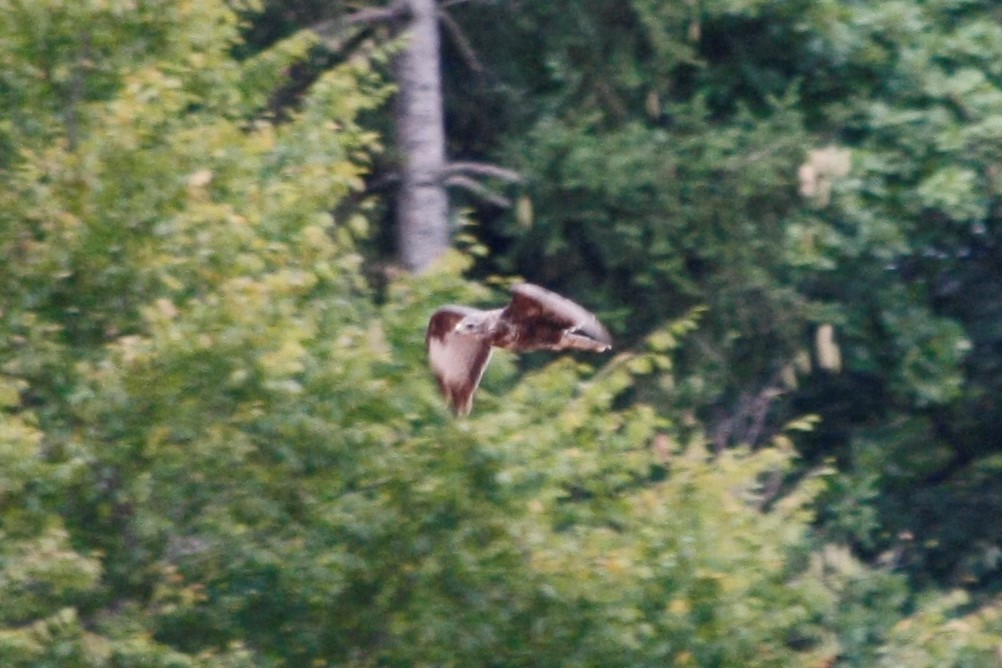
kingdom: Animalia
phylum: Chordata
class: Aves
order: Accipitriformes
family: Accipitridae
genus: Buteo
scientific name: Buteo buteo
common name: Common buzzard
